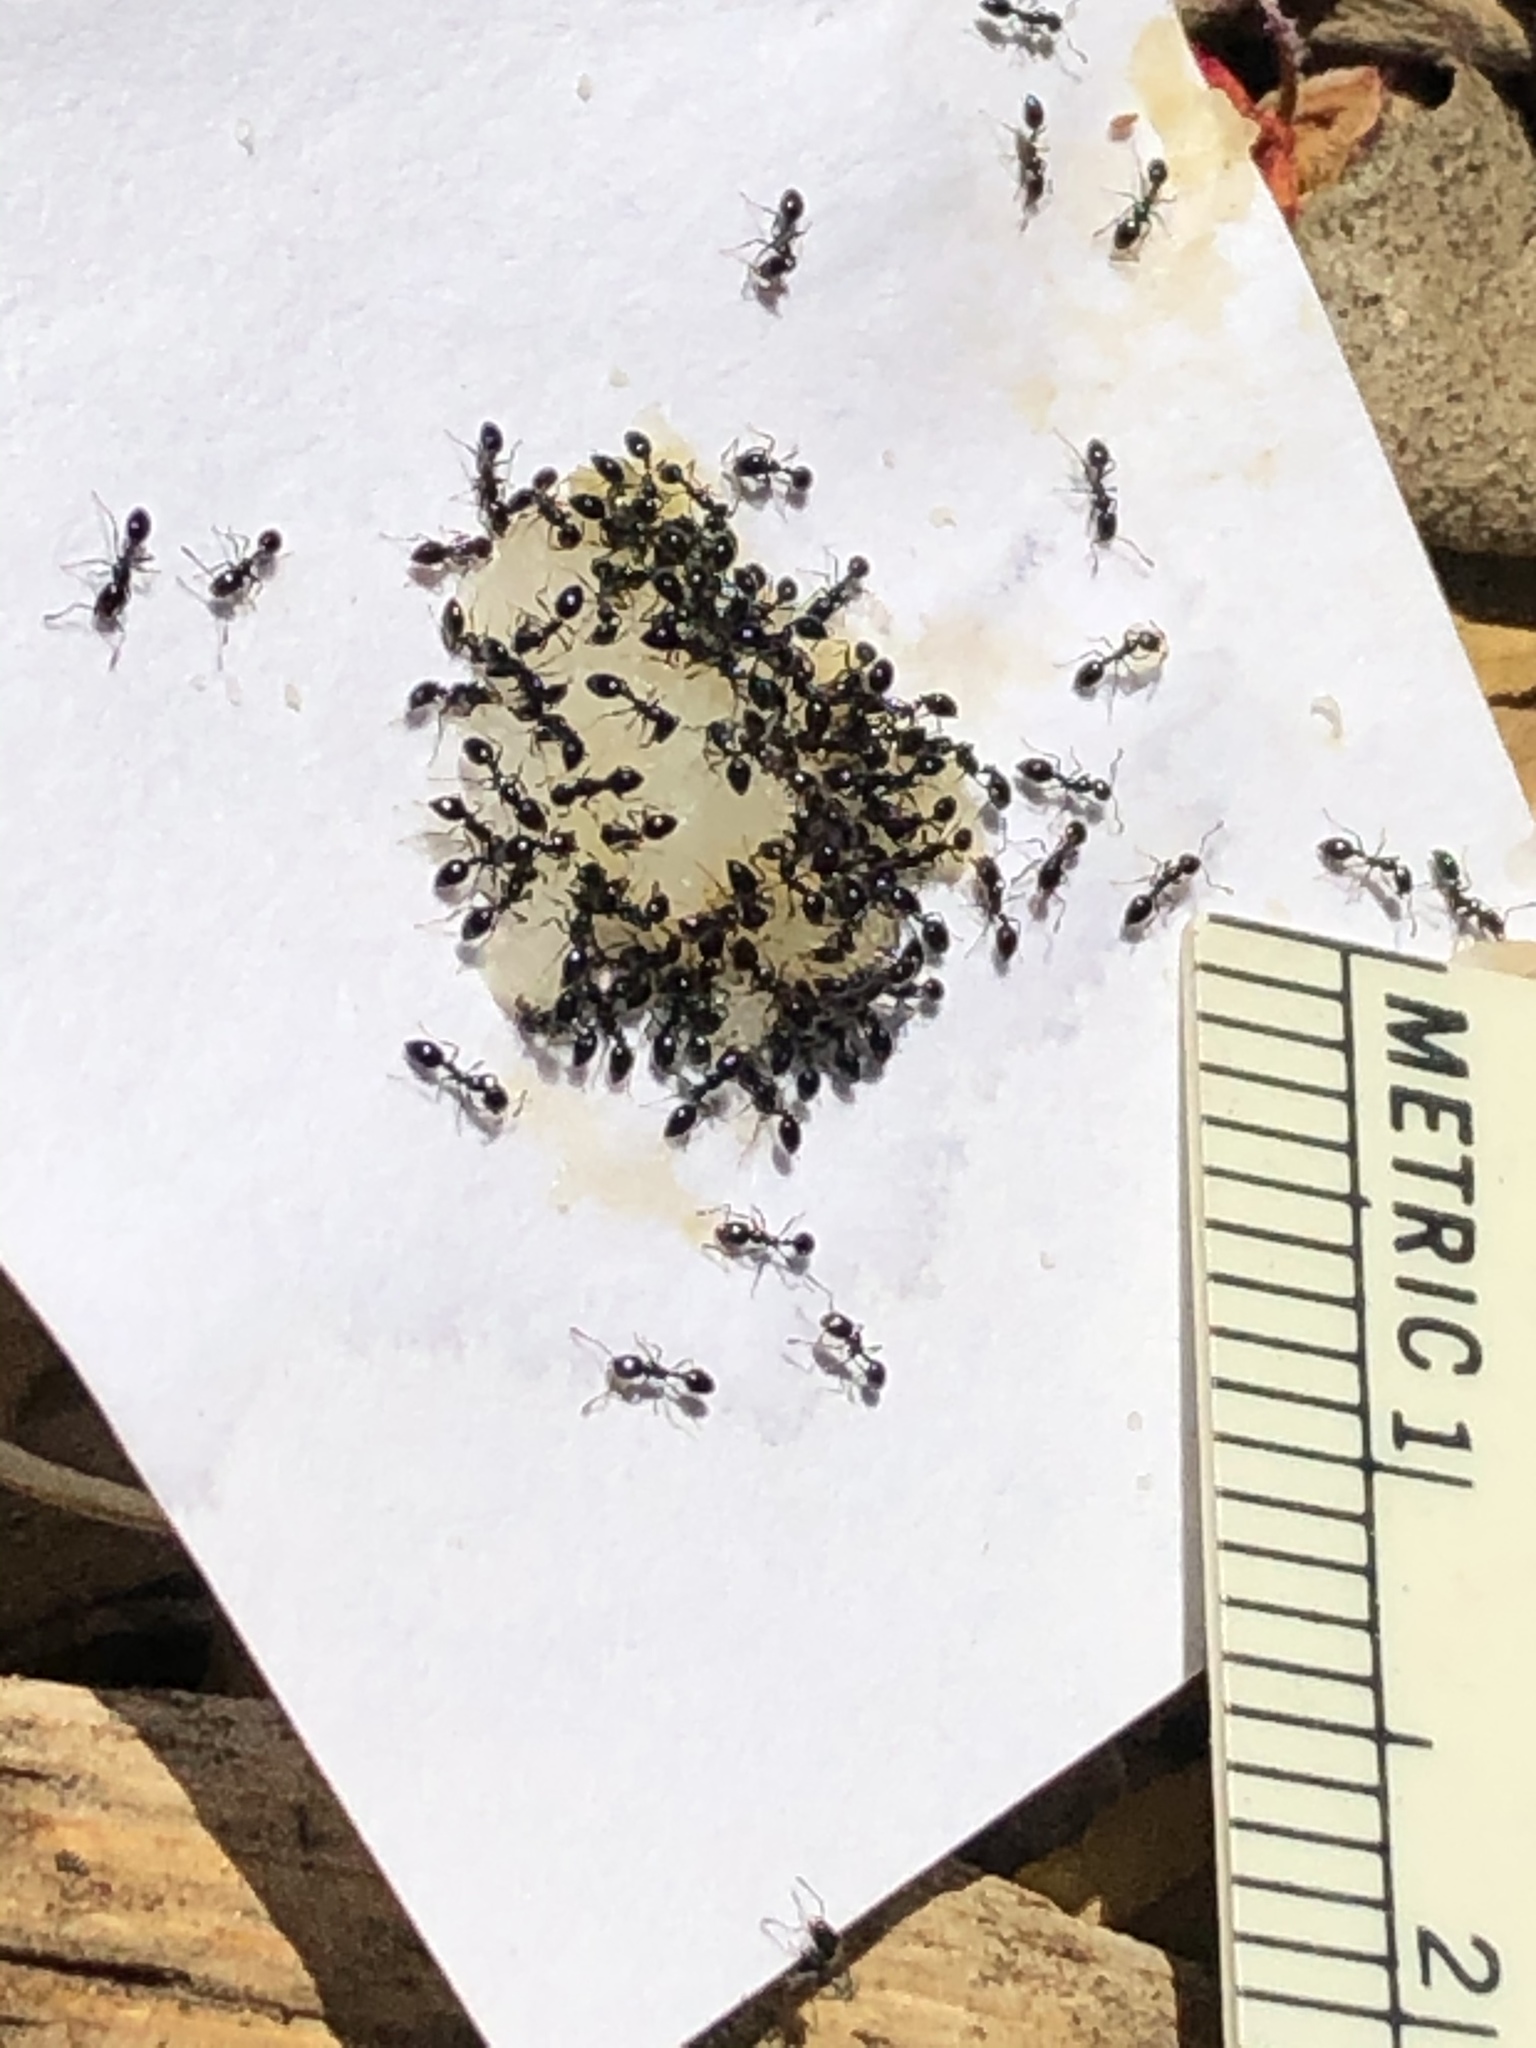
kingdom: Animalia
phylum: Arthropoda
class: Insecta
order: Hymenoptera
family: Formicidae
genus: Monomorium
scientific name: Monomorium ergatogyna
